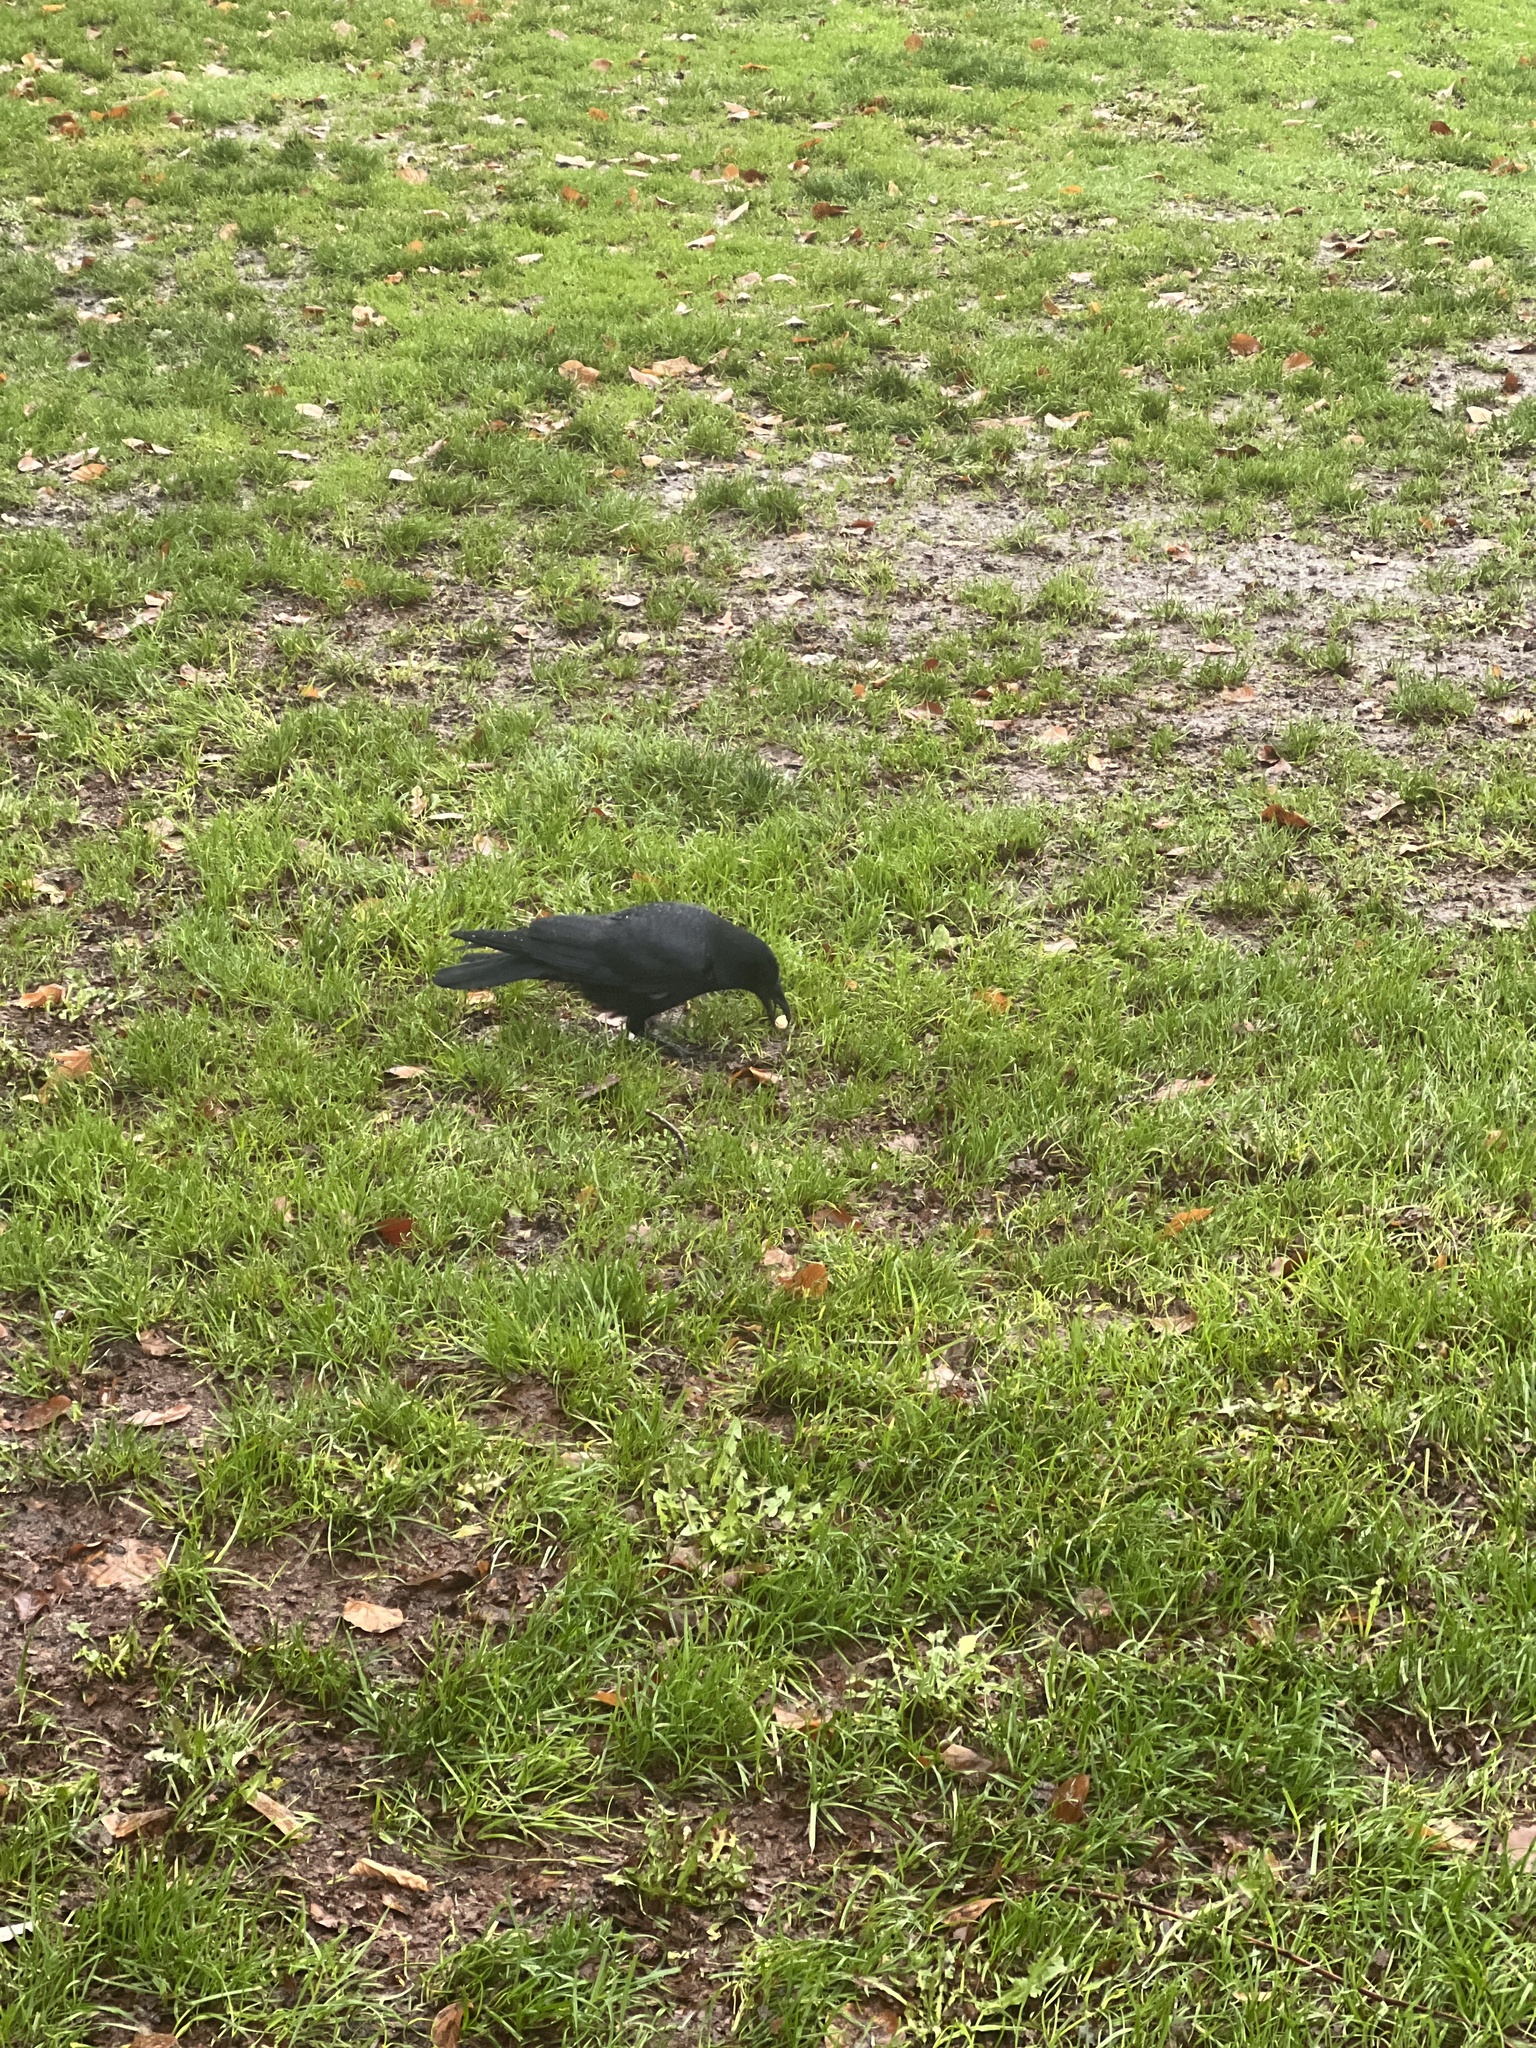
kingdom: Animalia
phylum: Chordata
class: Aves
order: Passeriformes
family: Corvidae
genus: Corvus
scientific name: Corvus brachyrhynchos
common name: American crow
